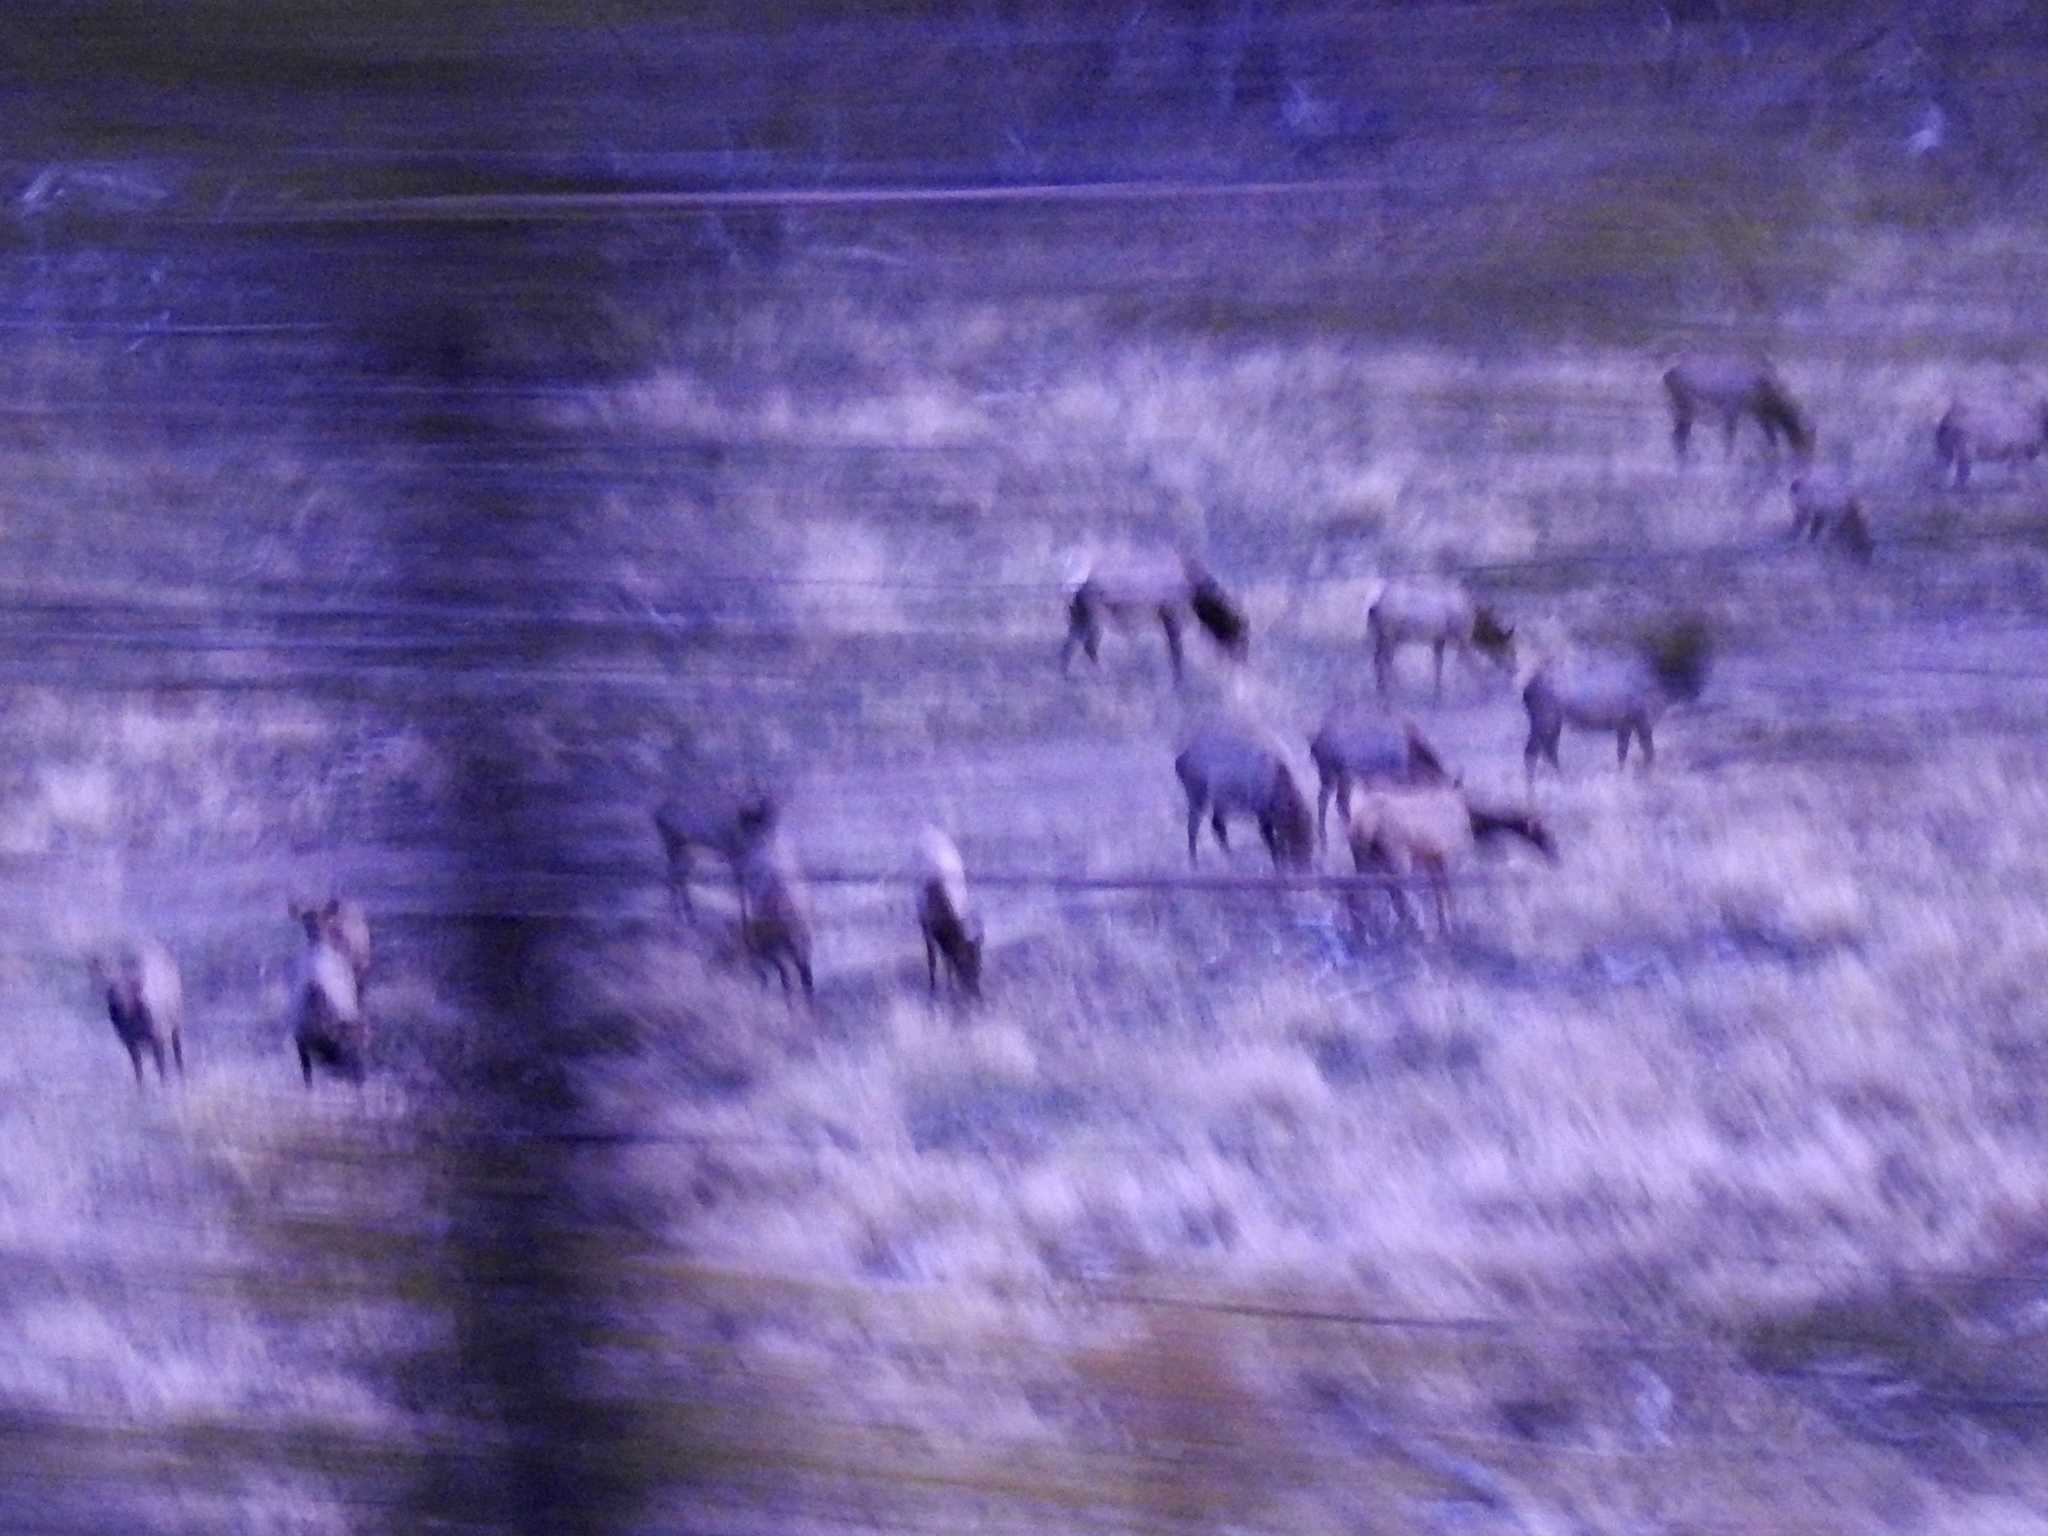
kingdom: Animalia
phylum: Chordata
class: Mammalia
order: Artiodactyla
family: Cervidae
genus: Cervus
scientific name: Cervus elaphus
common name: Red deer
